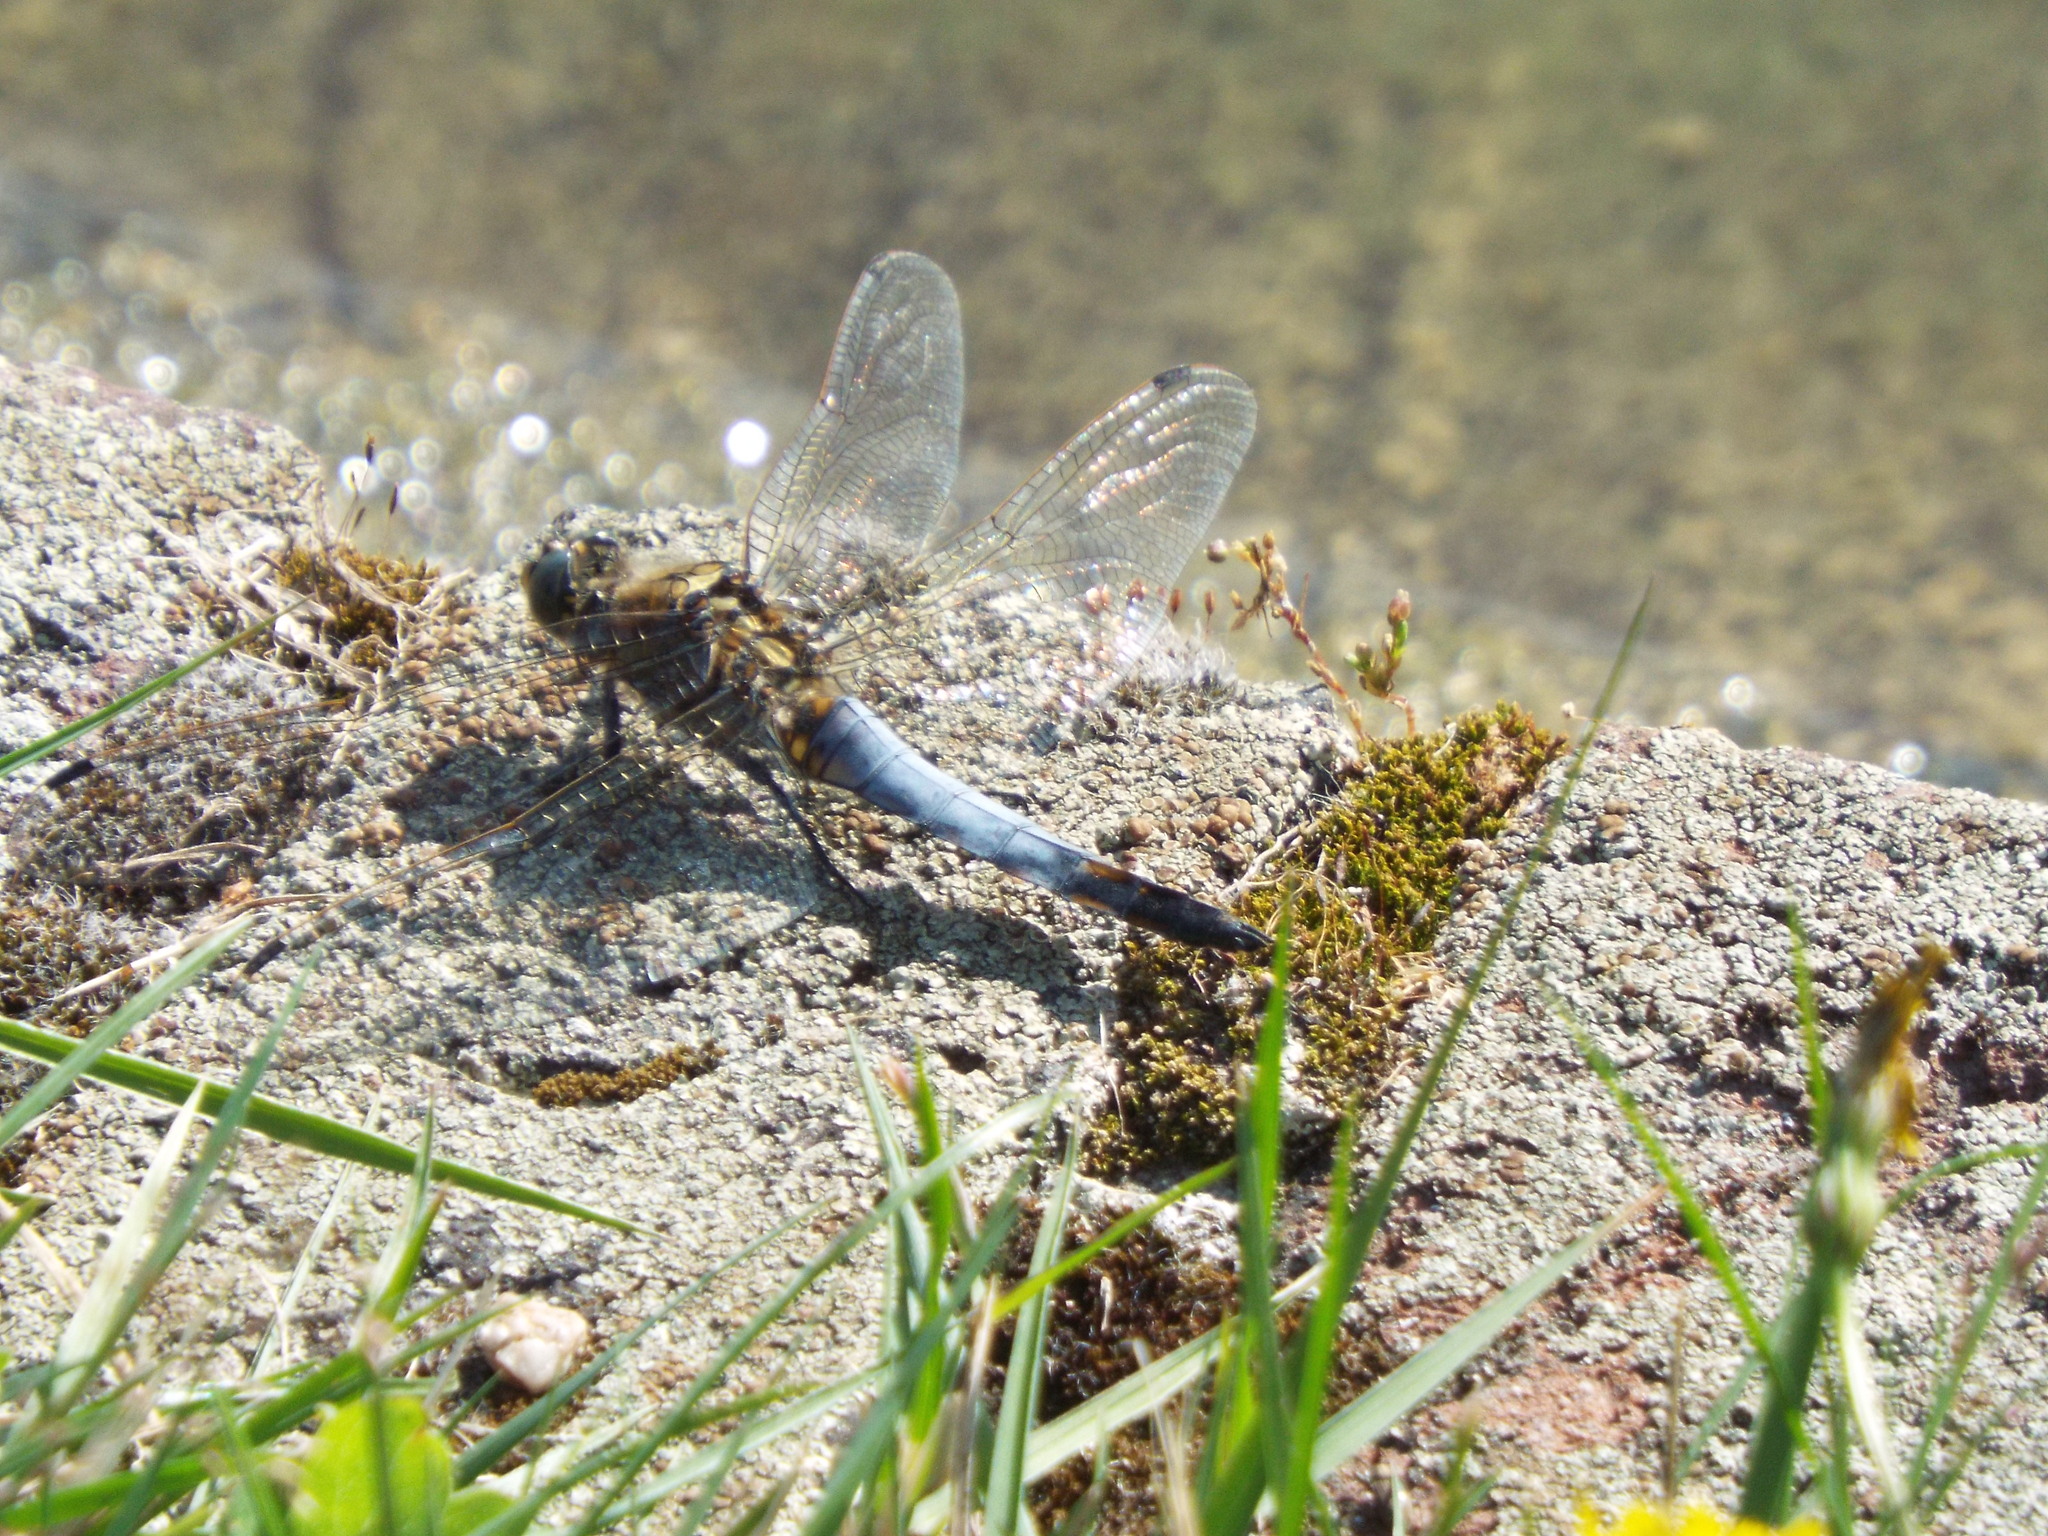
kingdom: Animalia
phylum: Arthropoda
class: Insecta
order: Odonata
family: Libellulidae
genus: Orthetrum
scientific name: Orthetrum cancellatum
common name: Black-tailed skimmer
